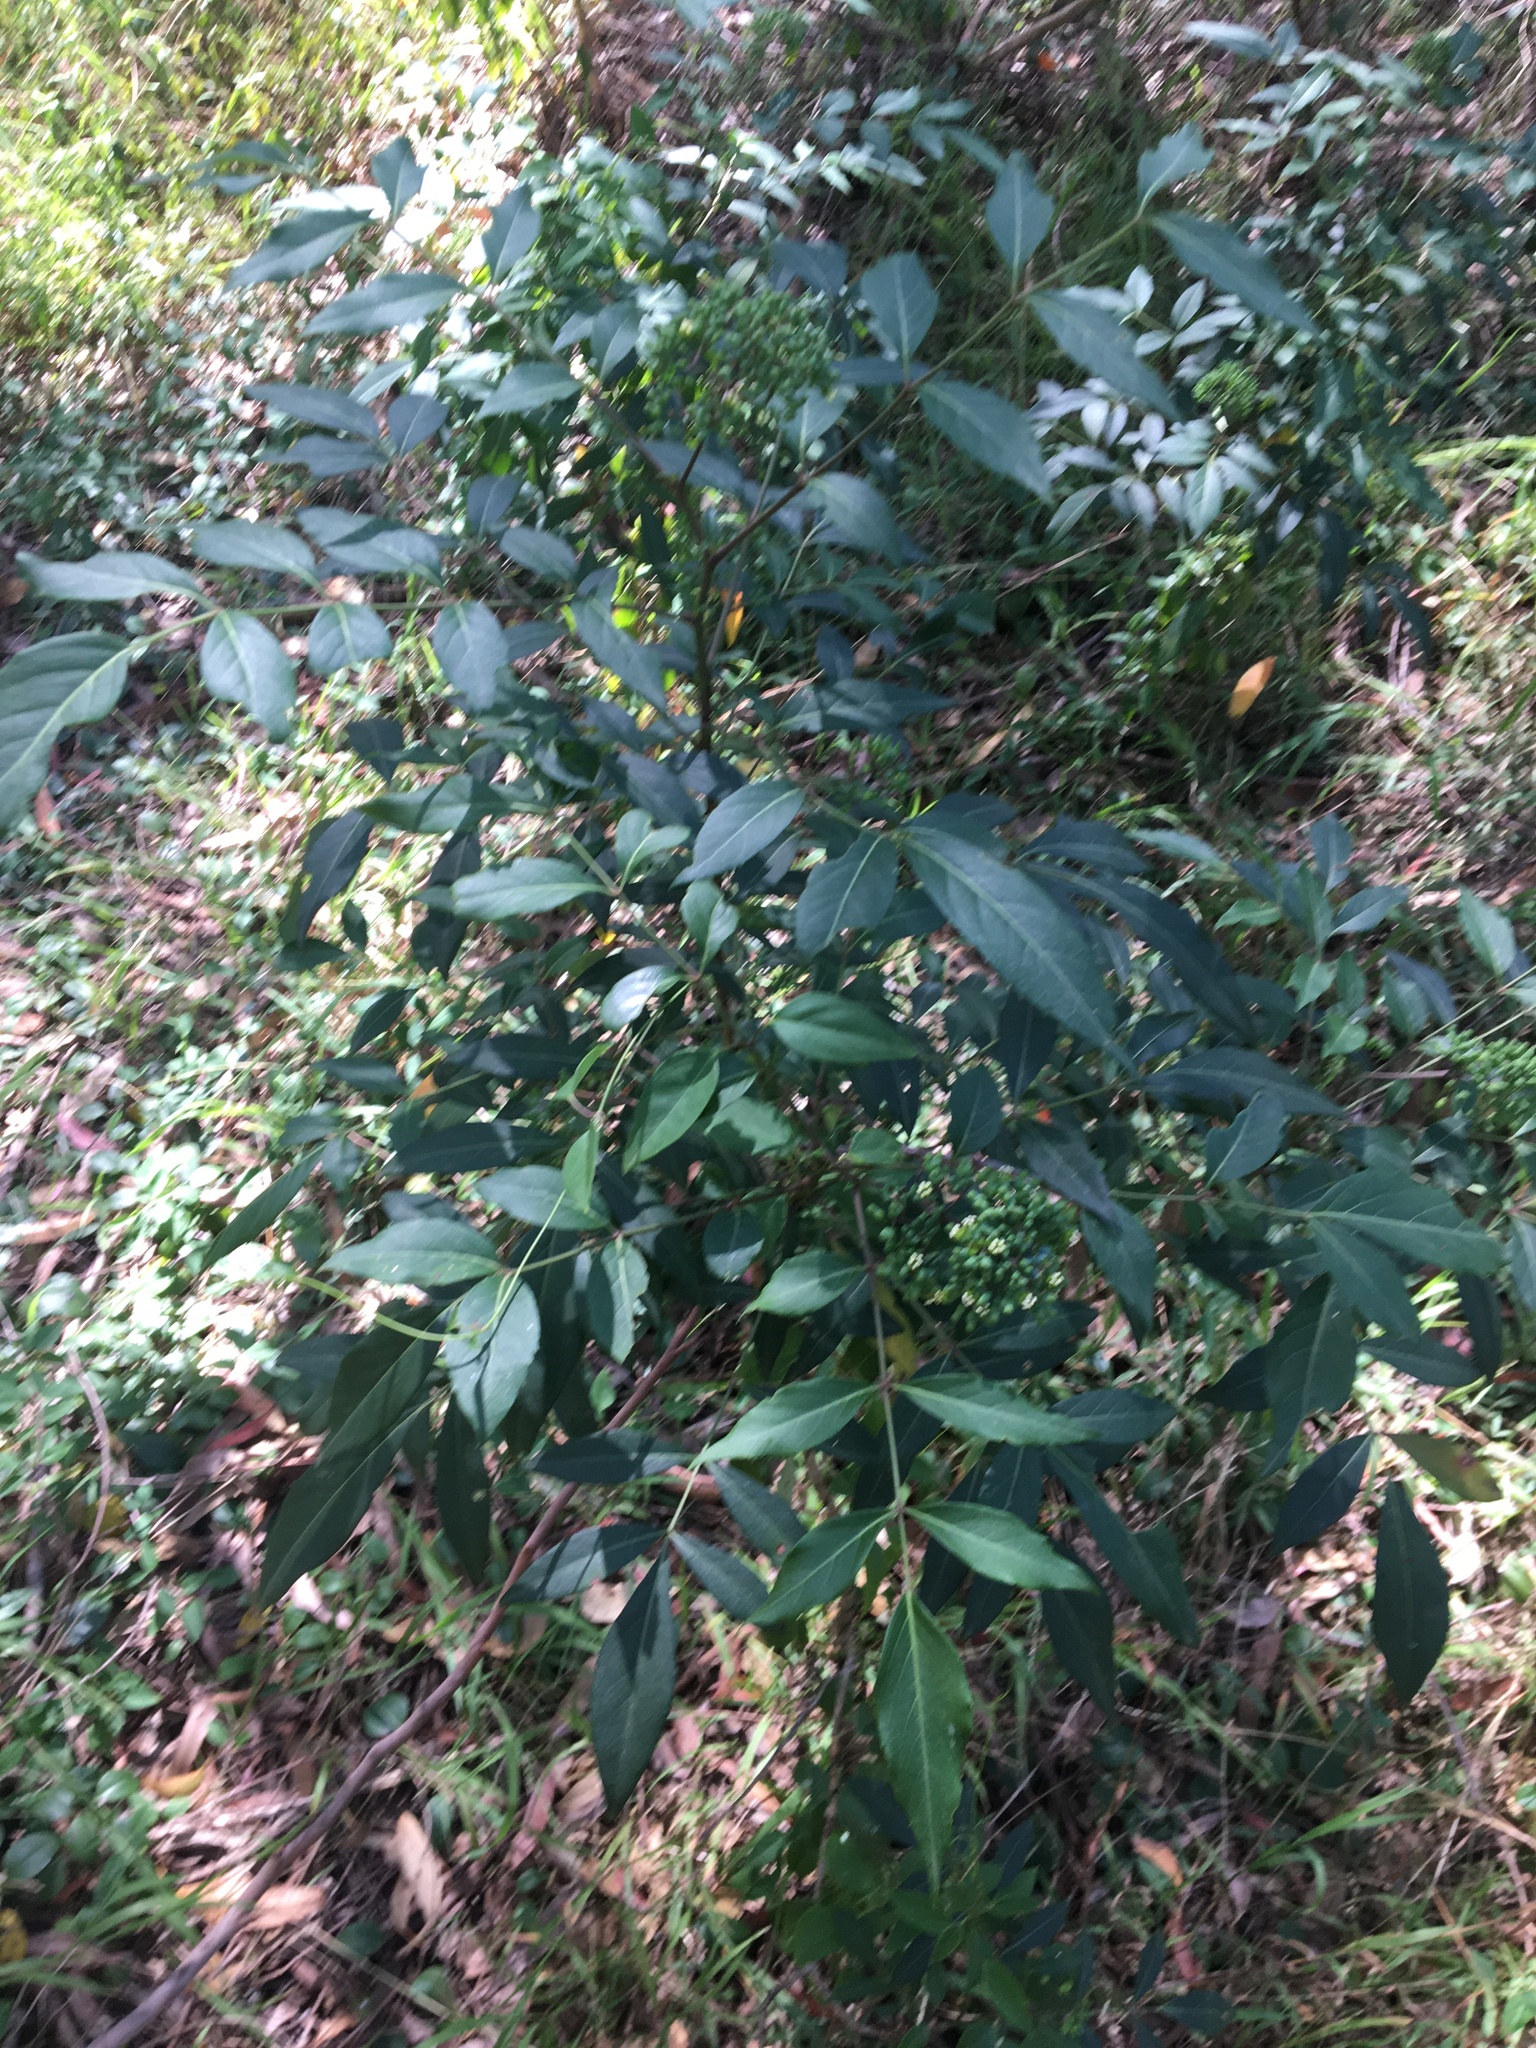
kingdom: Plantae
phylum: Tracheophyta
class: Magnoliopsida
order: Apiales
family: Araliaceae
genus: Polyscias
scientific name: Polyscias sambucifolia
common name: Elderberry-ash
